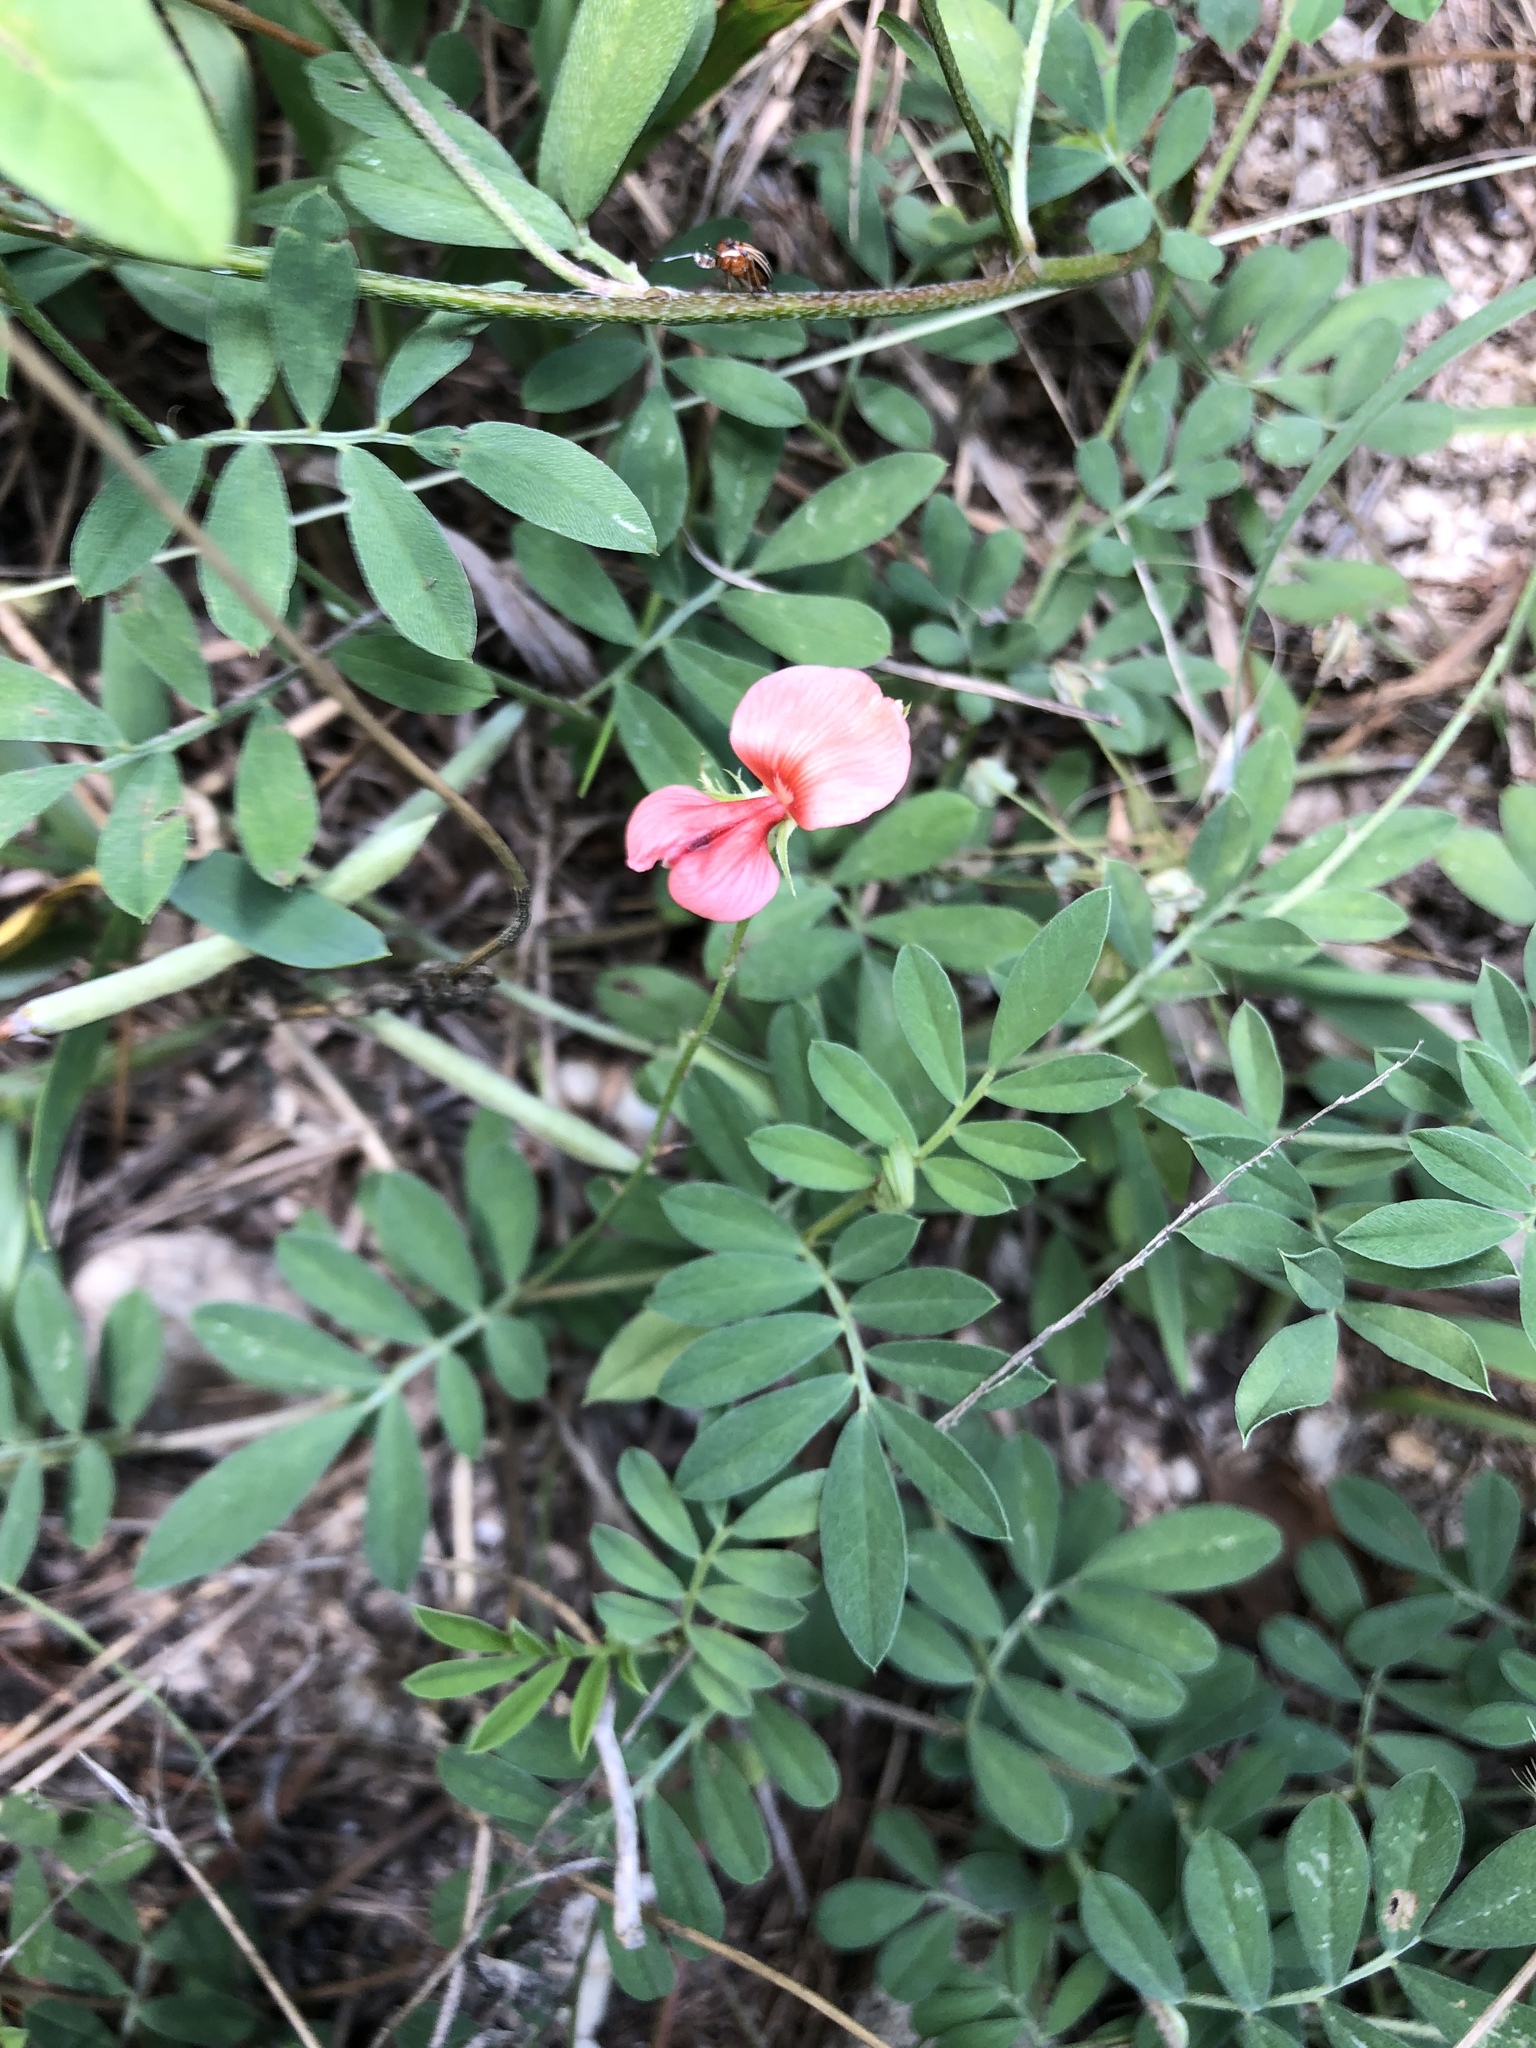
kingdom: Plantae
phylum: Tracheophyta
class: Magnoliopsida
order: Fabales
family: Fabaceae
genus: Indigofera
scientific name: Indigofera miniata
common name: Coast indigo
